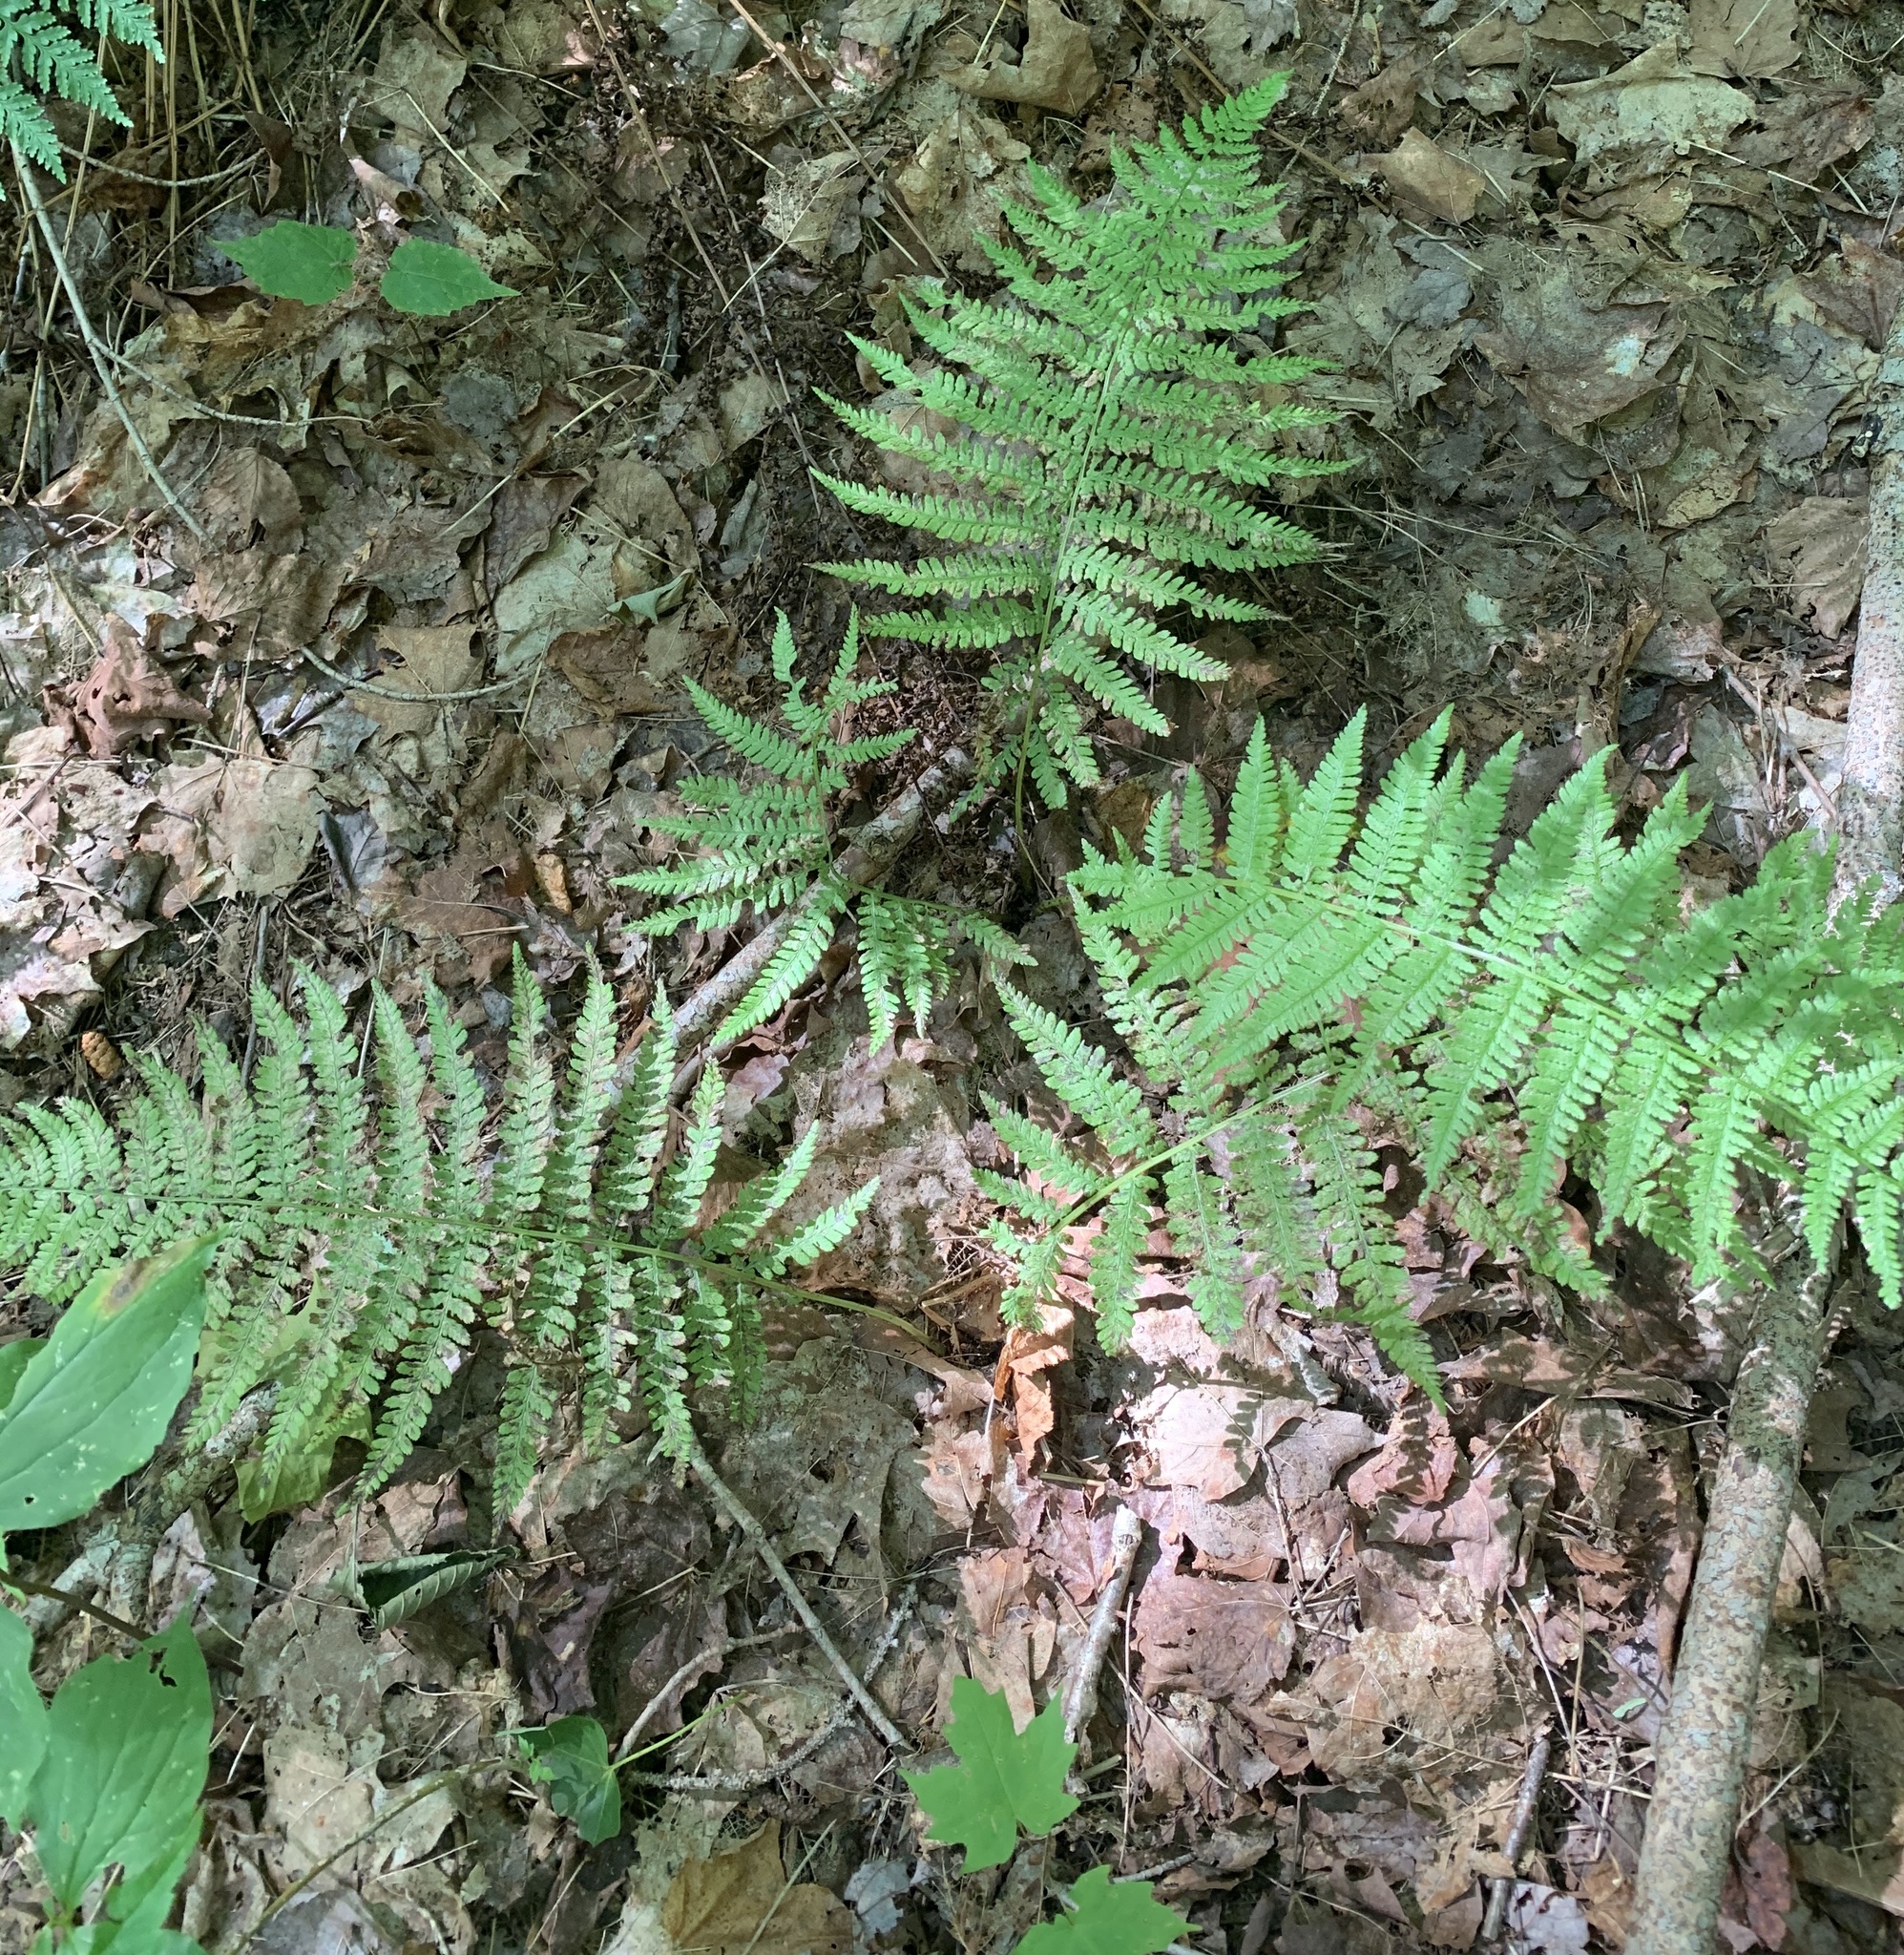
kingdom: Plantae
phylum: Tracheophyta
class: Polypodiopsida
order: Polypodiales
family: Athyriaceae
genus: Athyrium
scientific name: Athyrium angustum
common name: Northern lady fern
